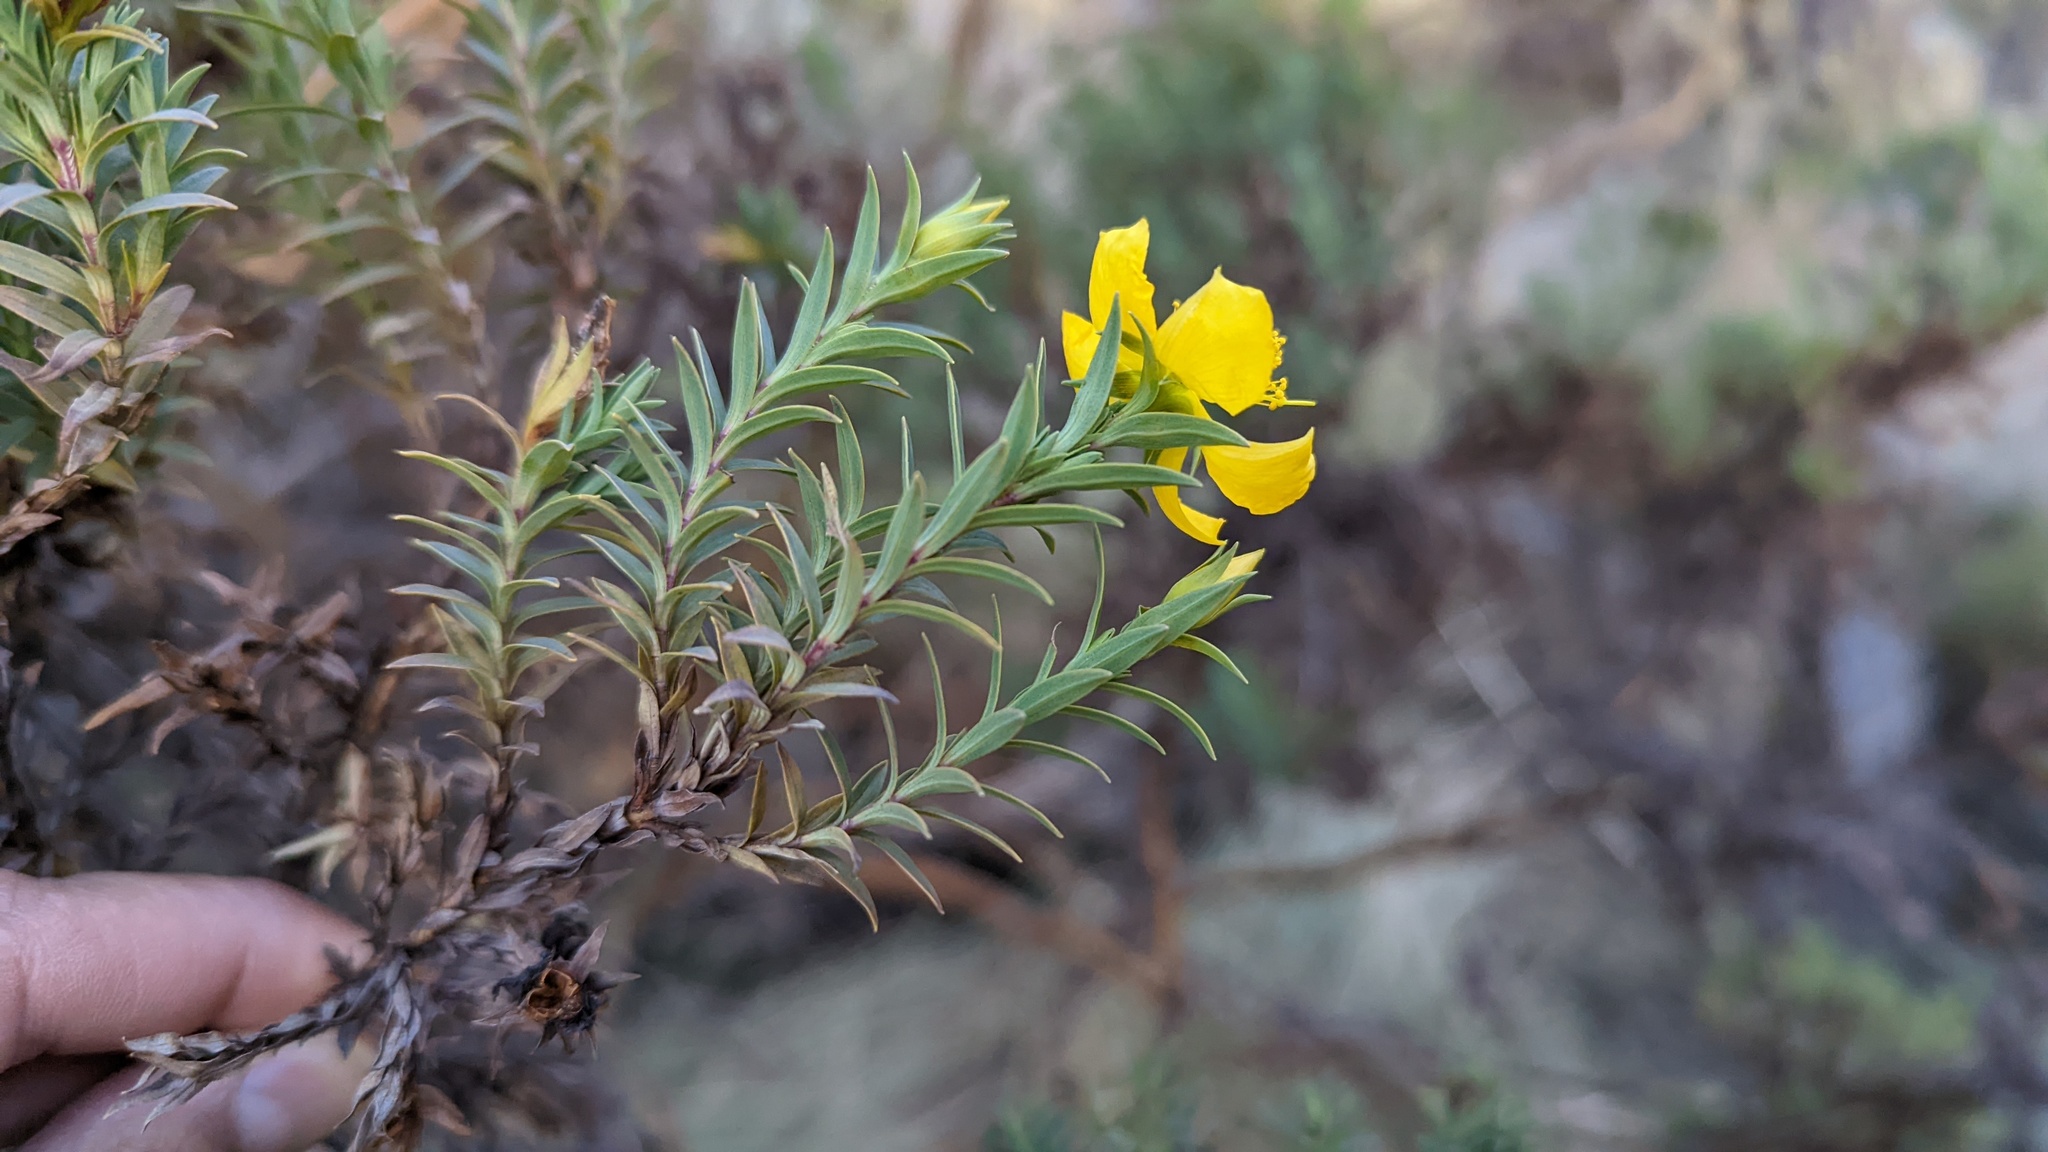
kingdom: Plantae
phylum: Tracheophyta
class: Magnoliopsida
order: Malpighiales
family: Hypericaceae
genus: Hypericum
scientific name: Hypericum irazuense
